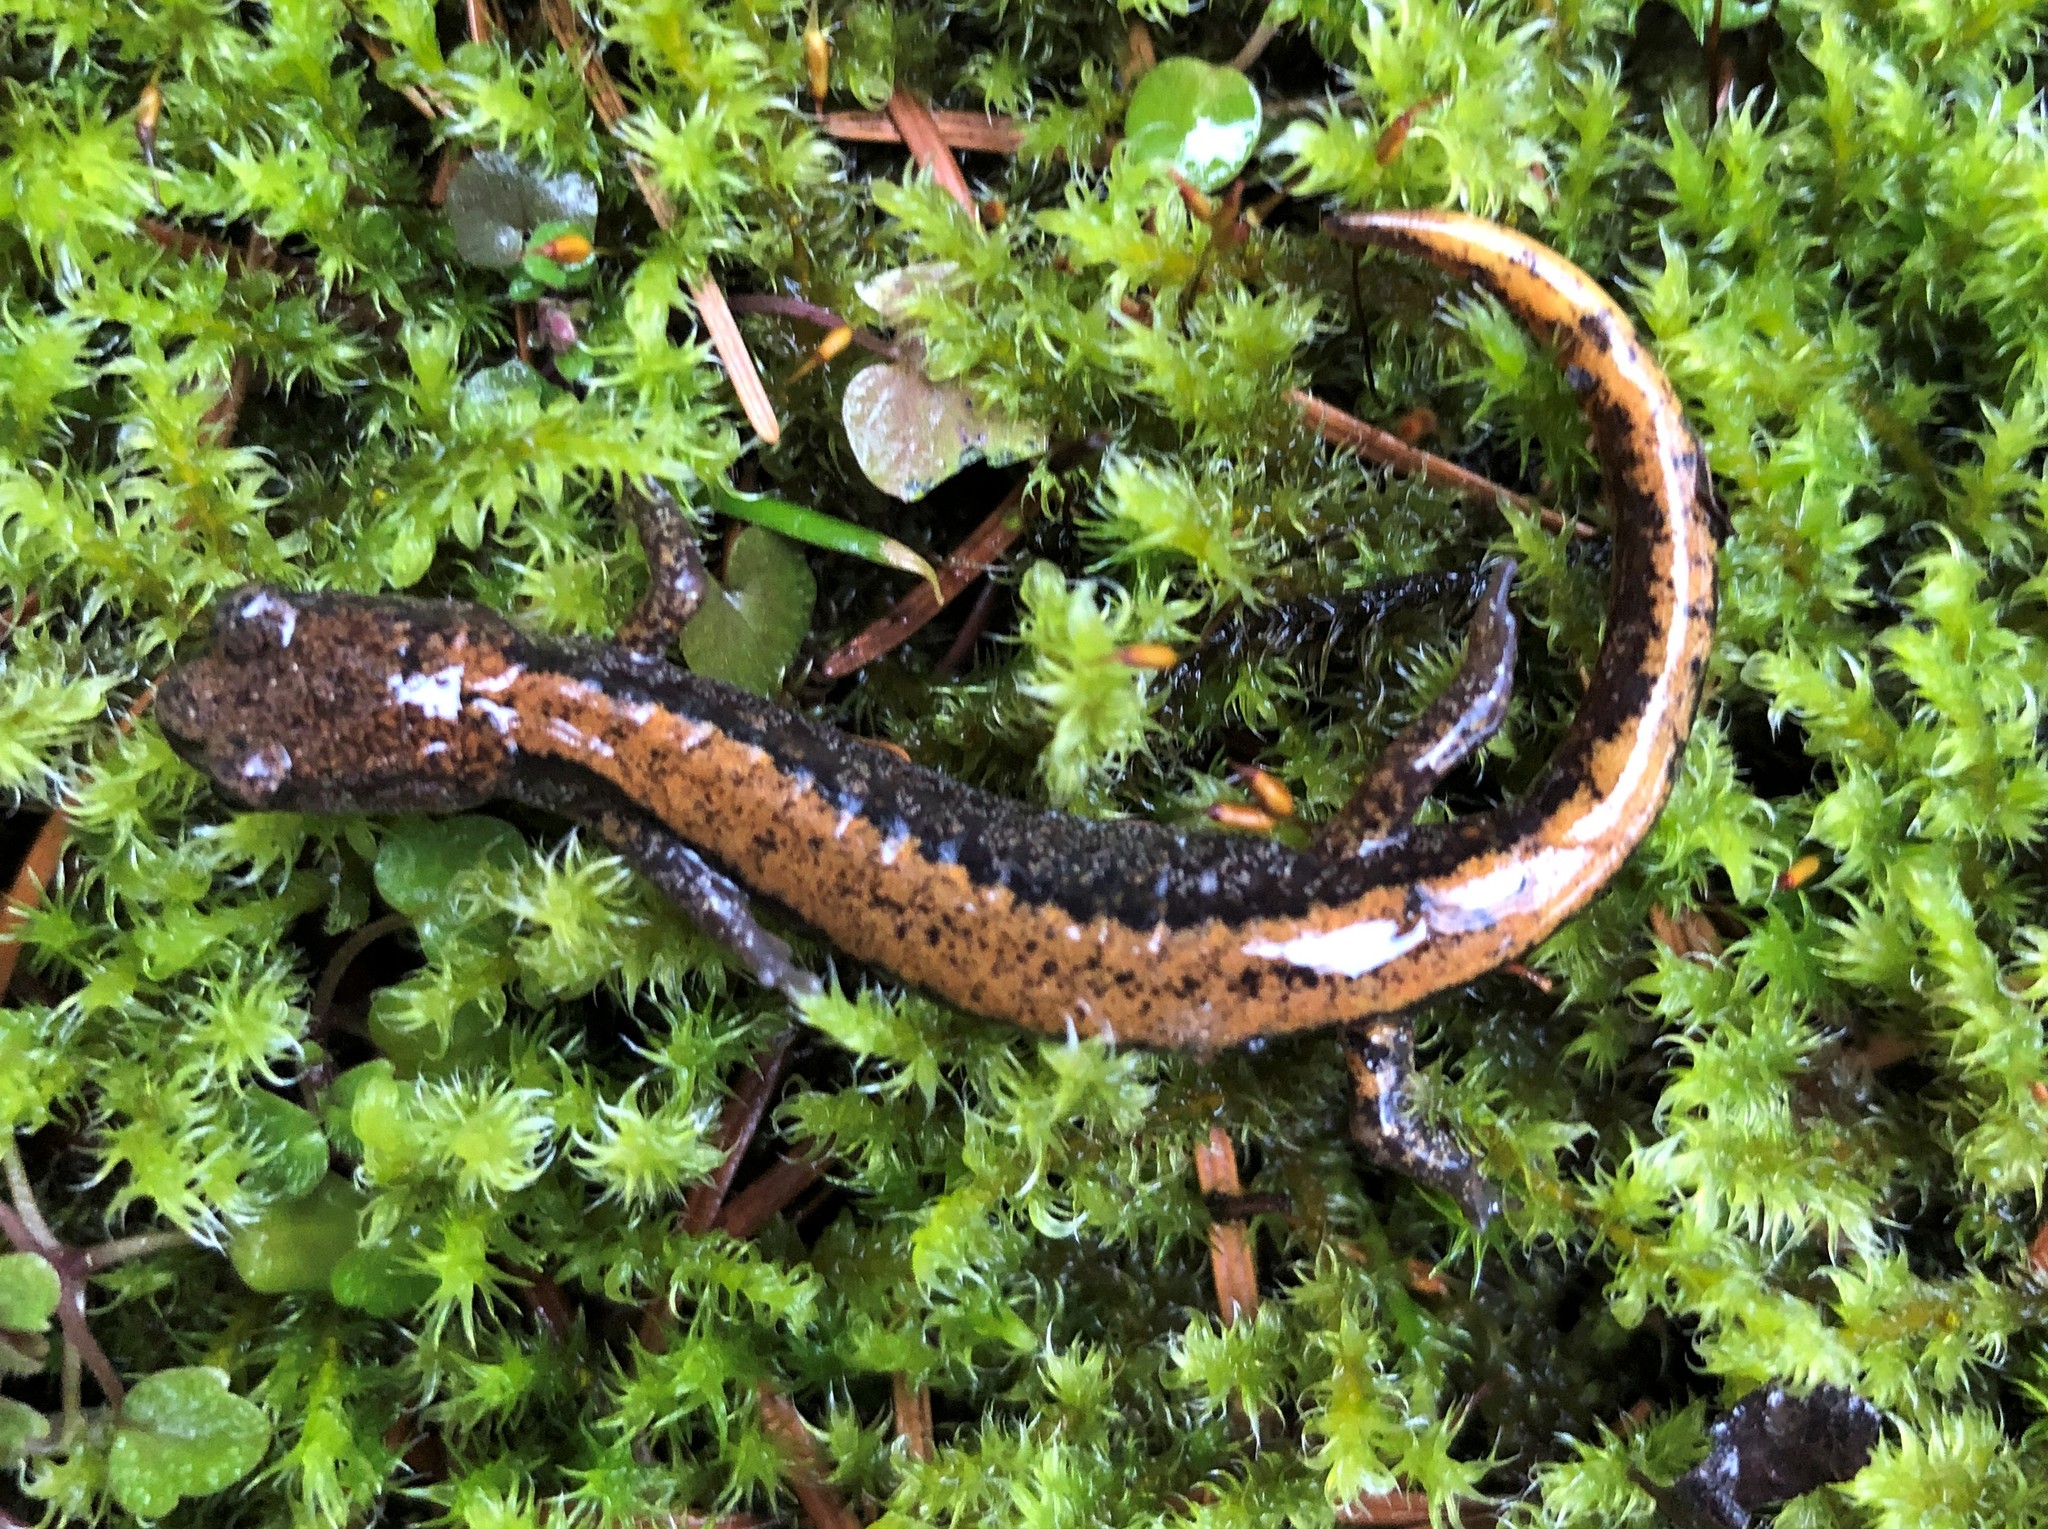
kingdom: Animalia
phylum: Chordata
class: Amphibia
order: Caudata
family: Plethodontidae
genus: Plethodon
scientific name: Plethodon larselli
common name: Larch mountain salamander
